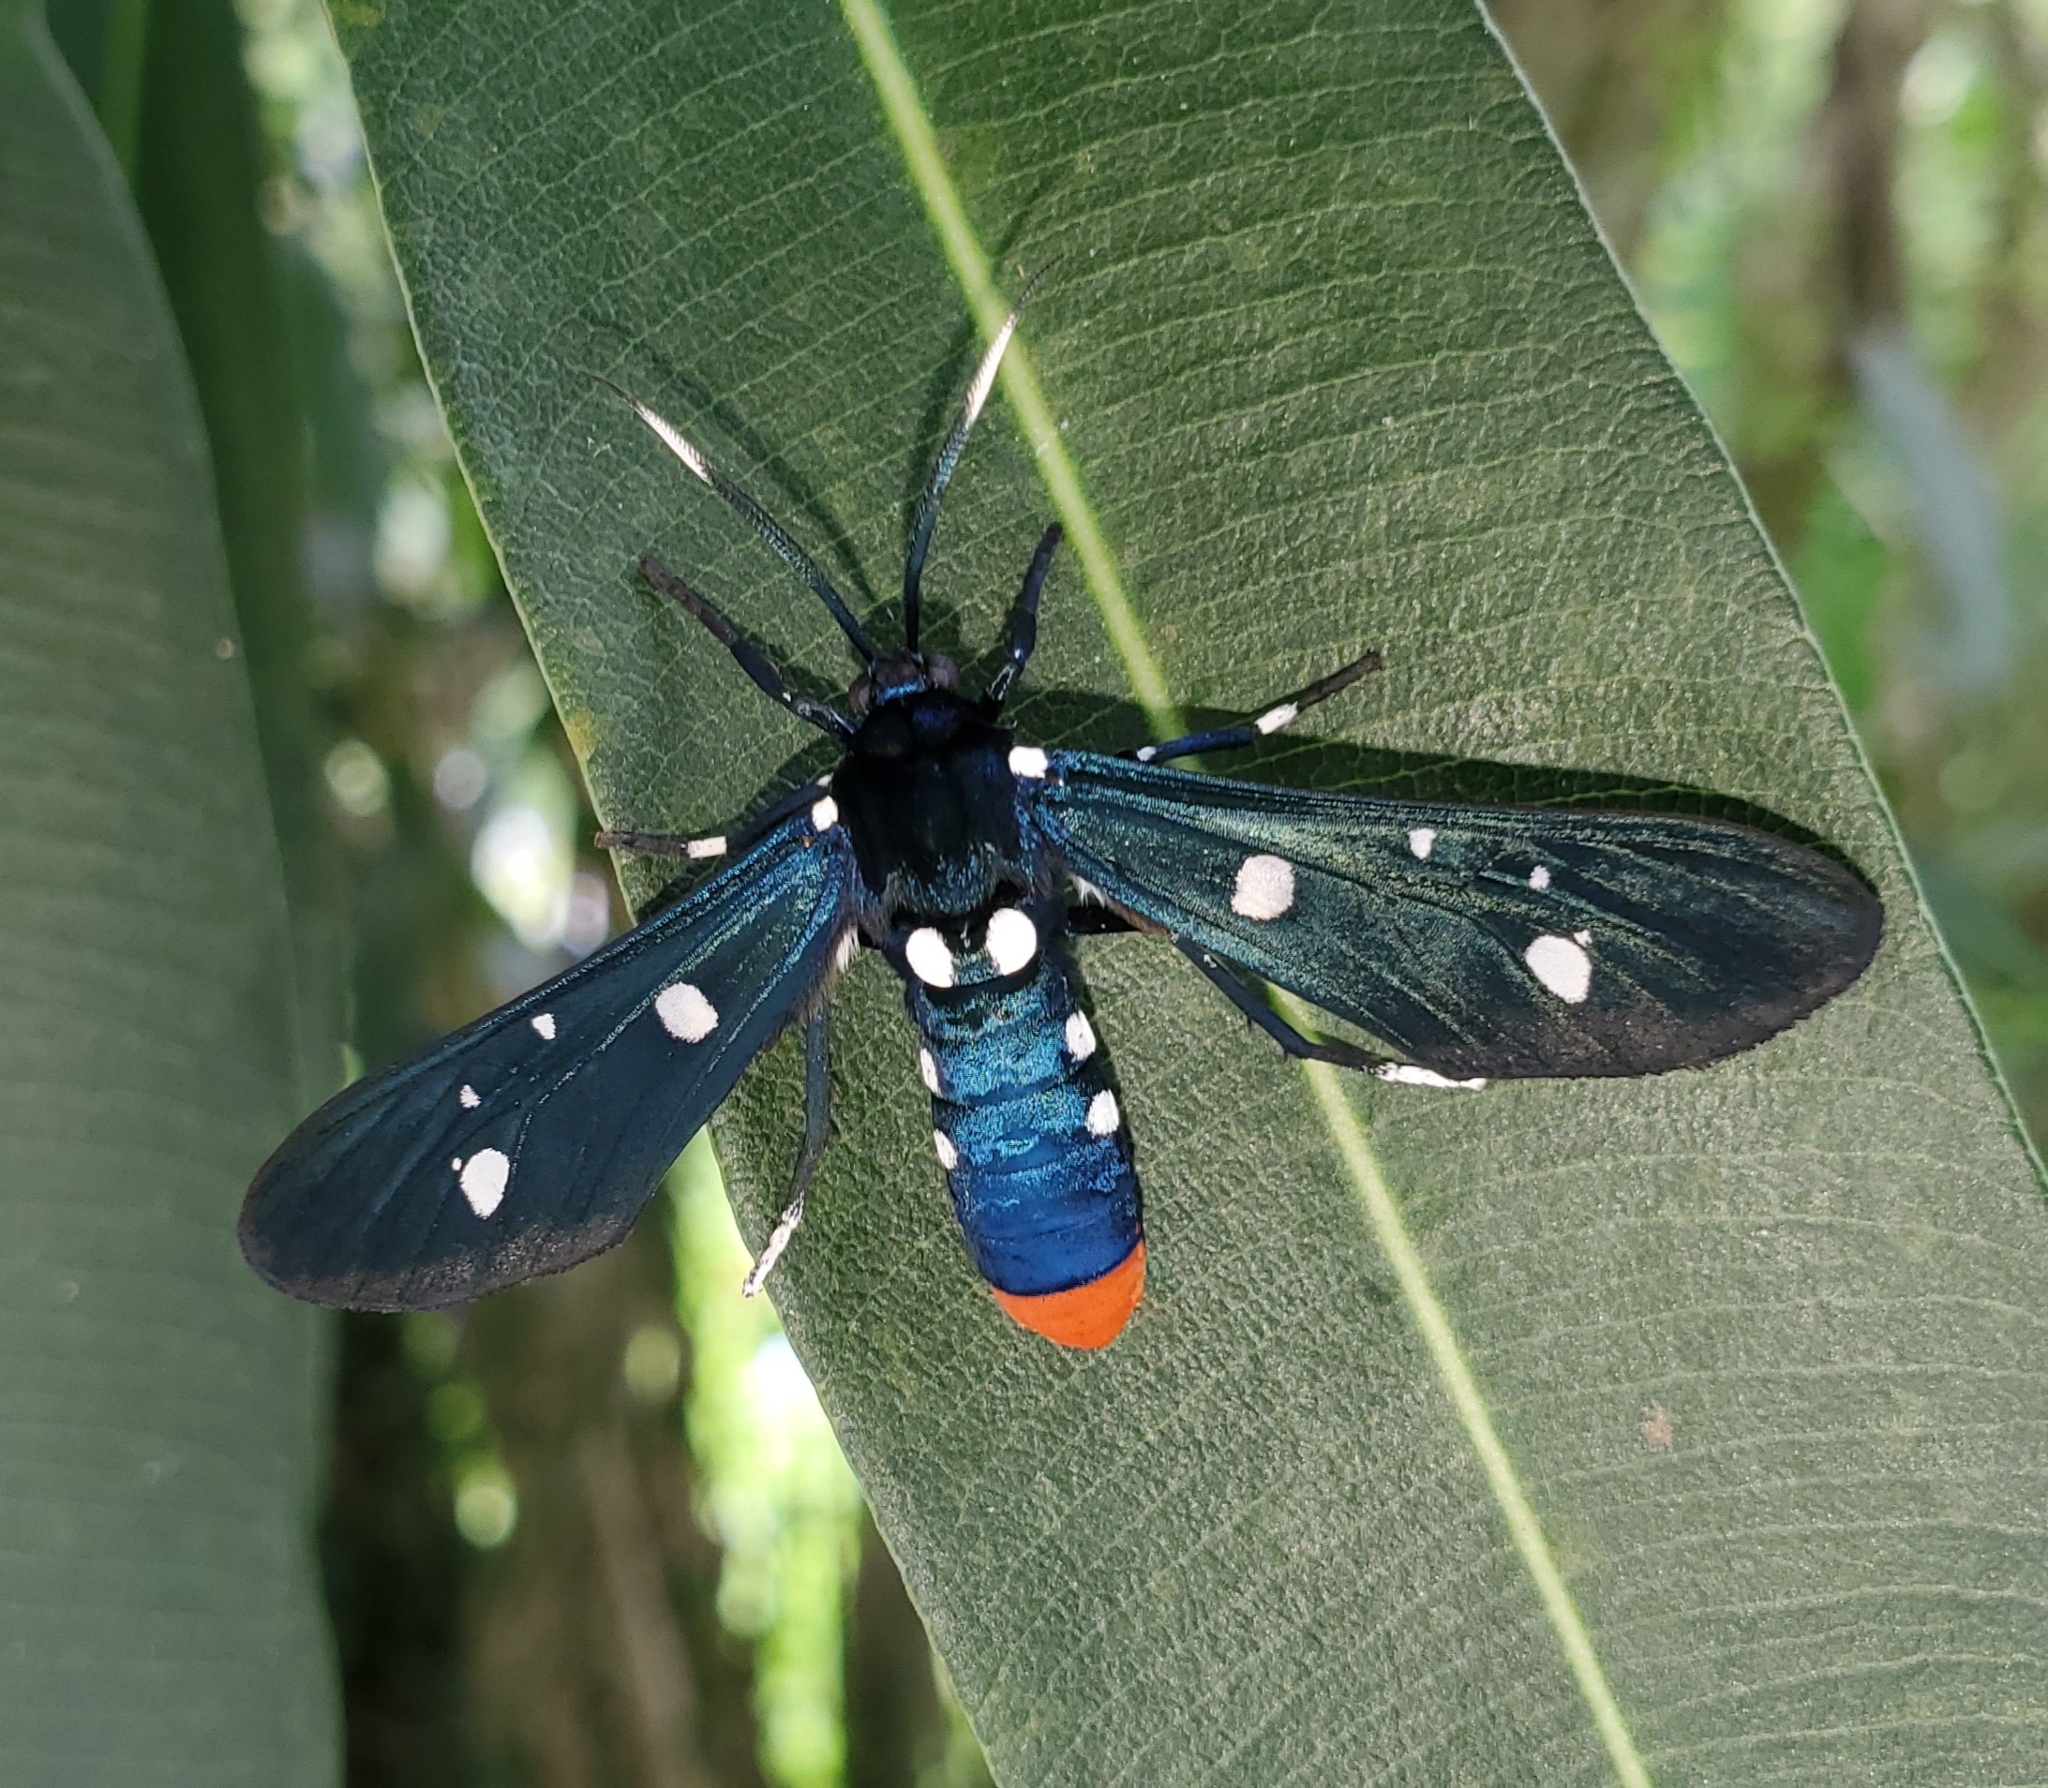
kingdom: Animalia
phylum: Arthropoda
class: Insecta
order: Lepidoptera
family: Erebidae
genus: Syntomeida
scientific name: Syntomeida epilais
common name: Polka-dot wasp moth
